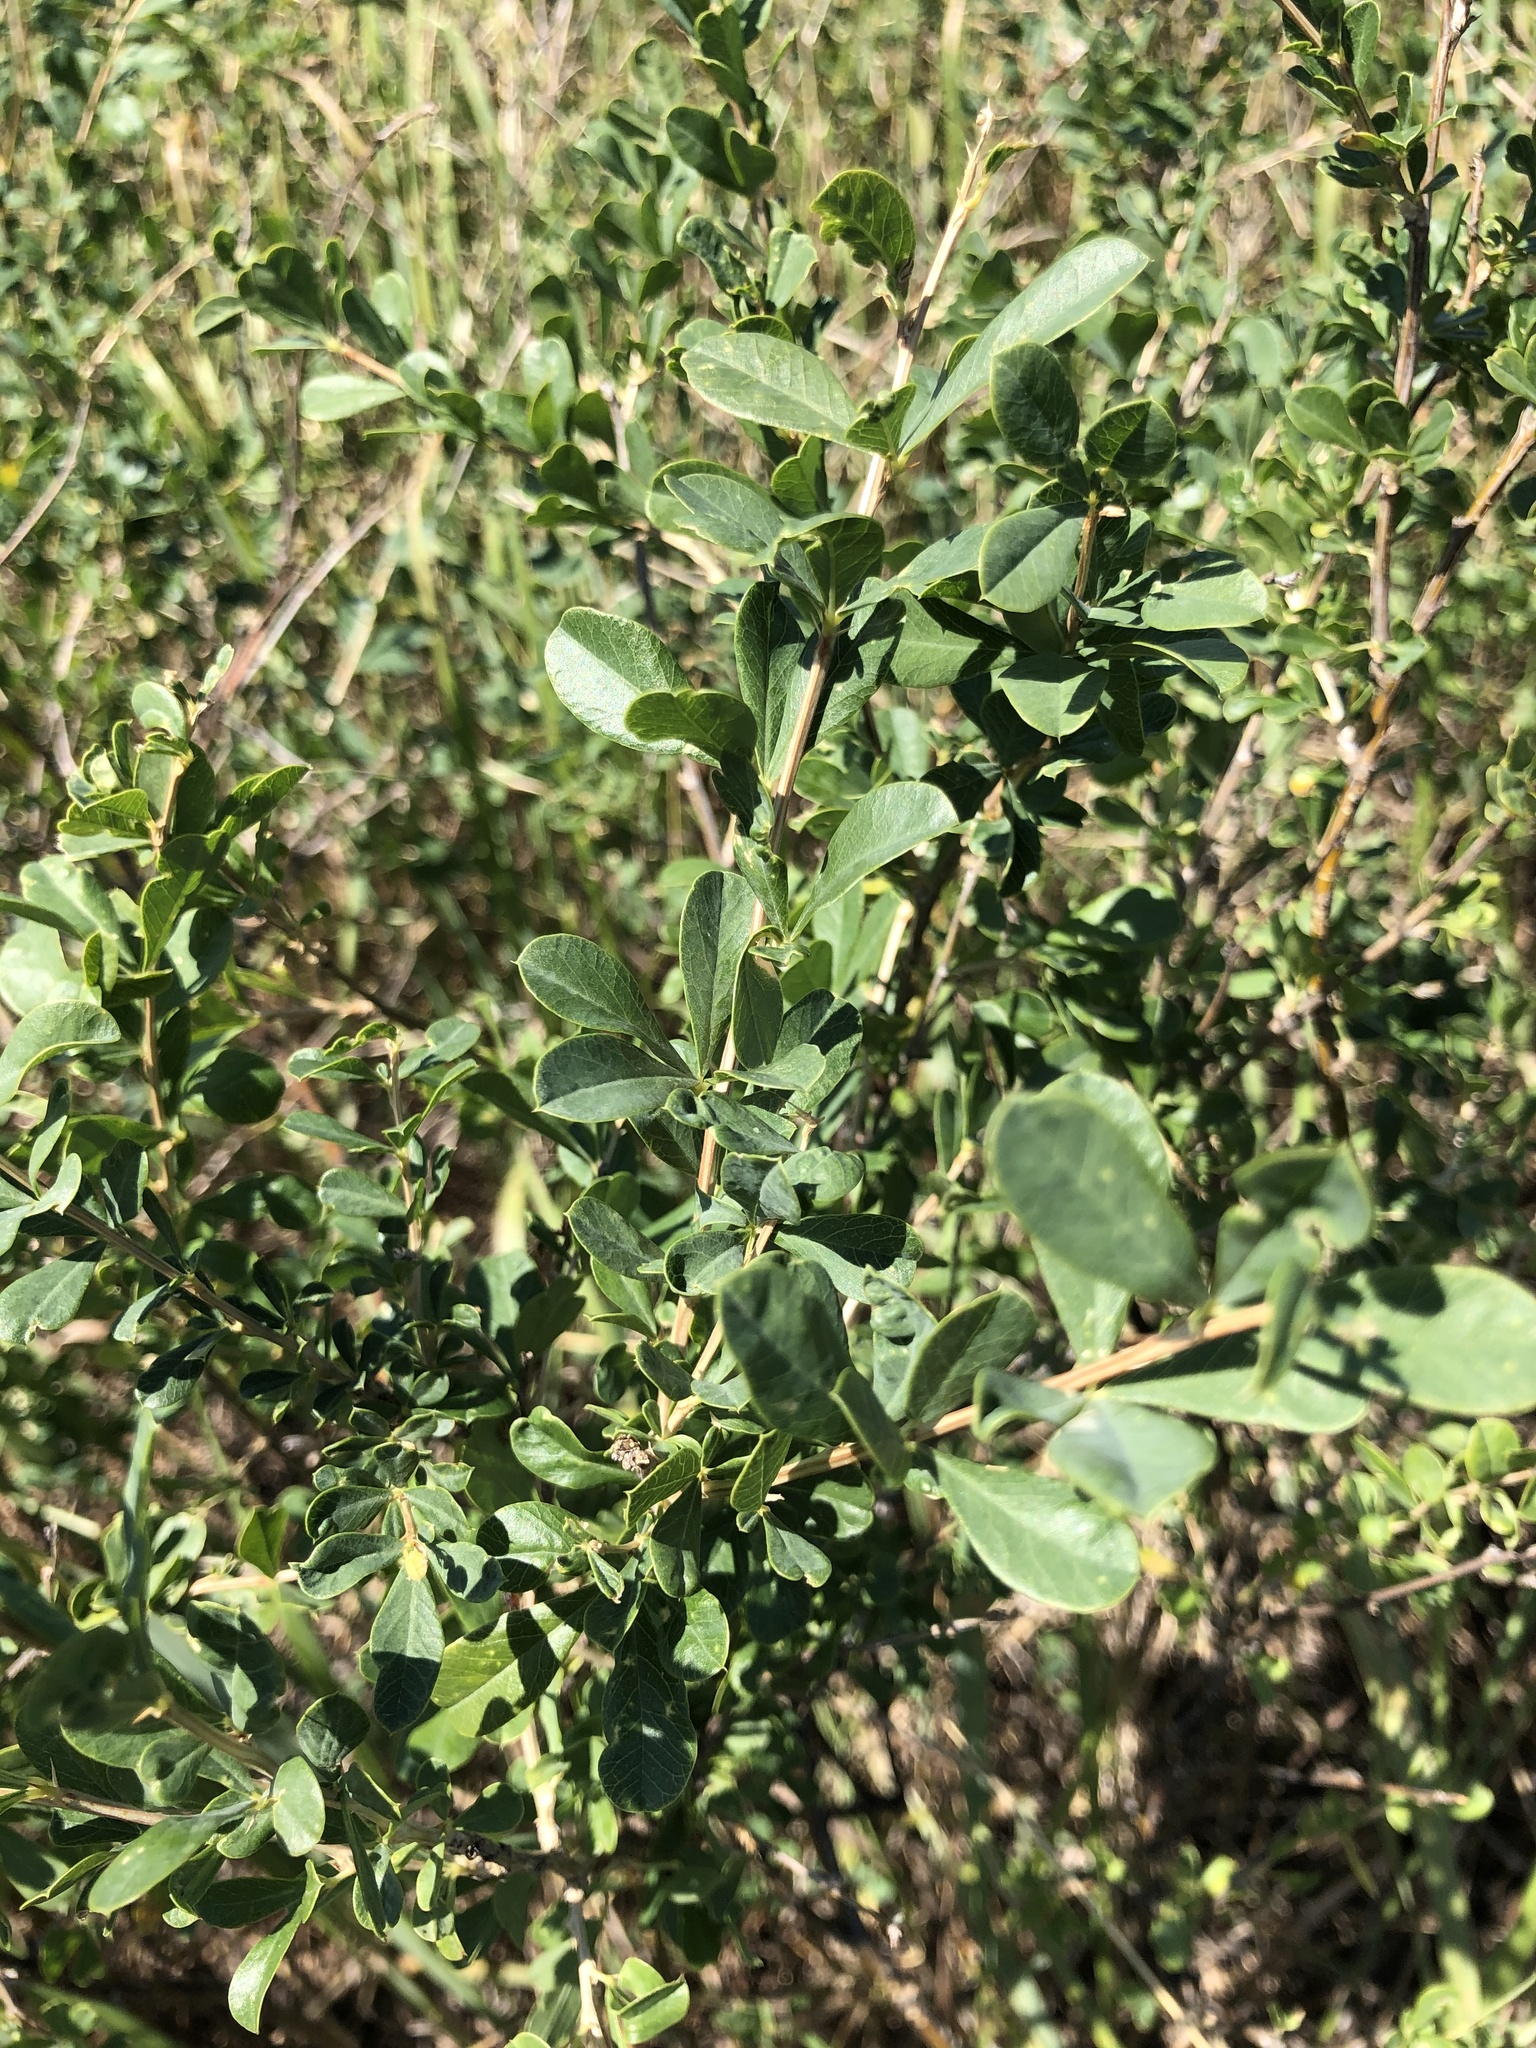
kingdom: Plantae
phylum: Tracheophyta
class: Magnoliopsida
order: Fabales
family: Fabaceae
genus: Caragana
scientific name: Caragana frutex
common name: Russian peashrub
